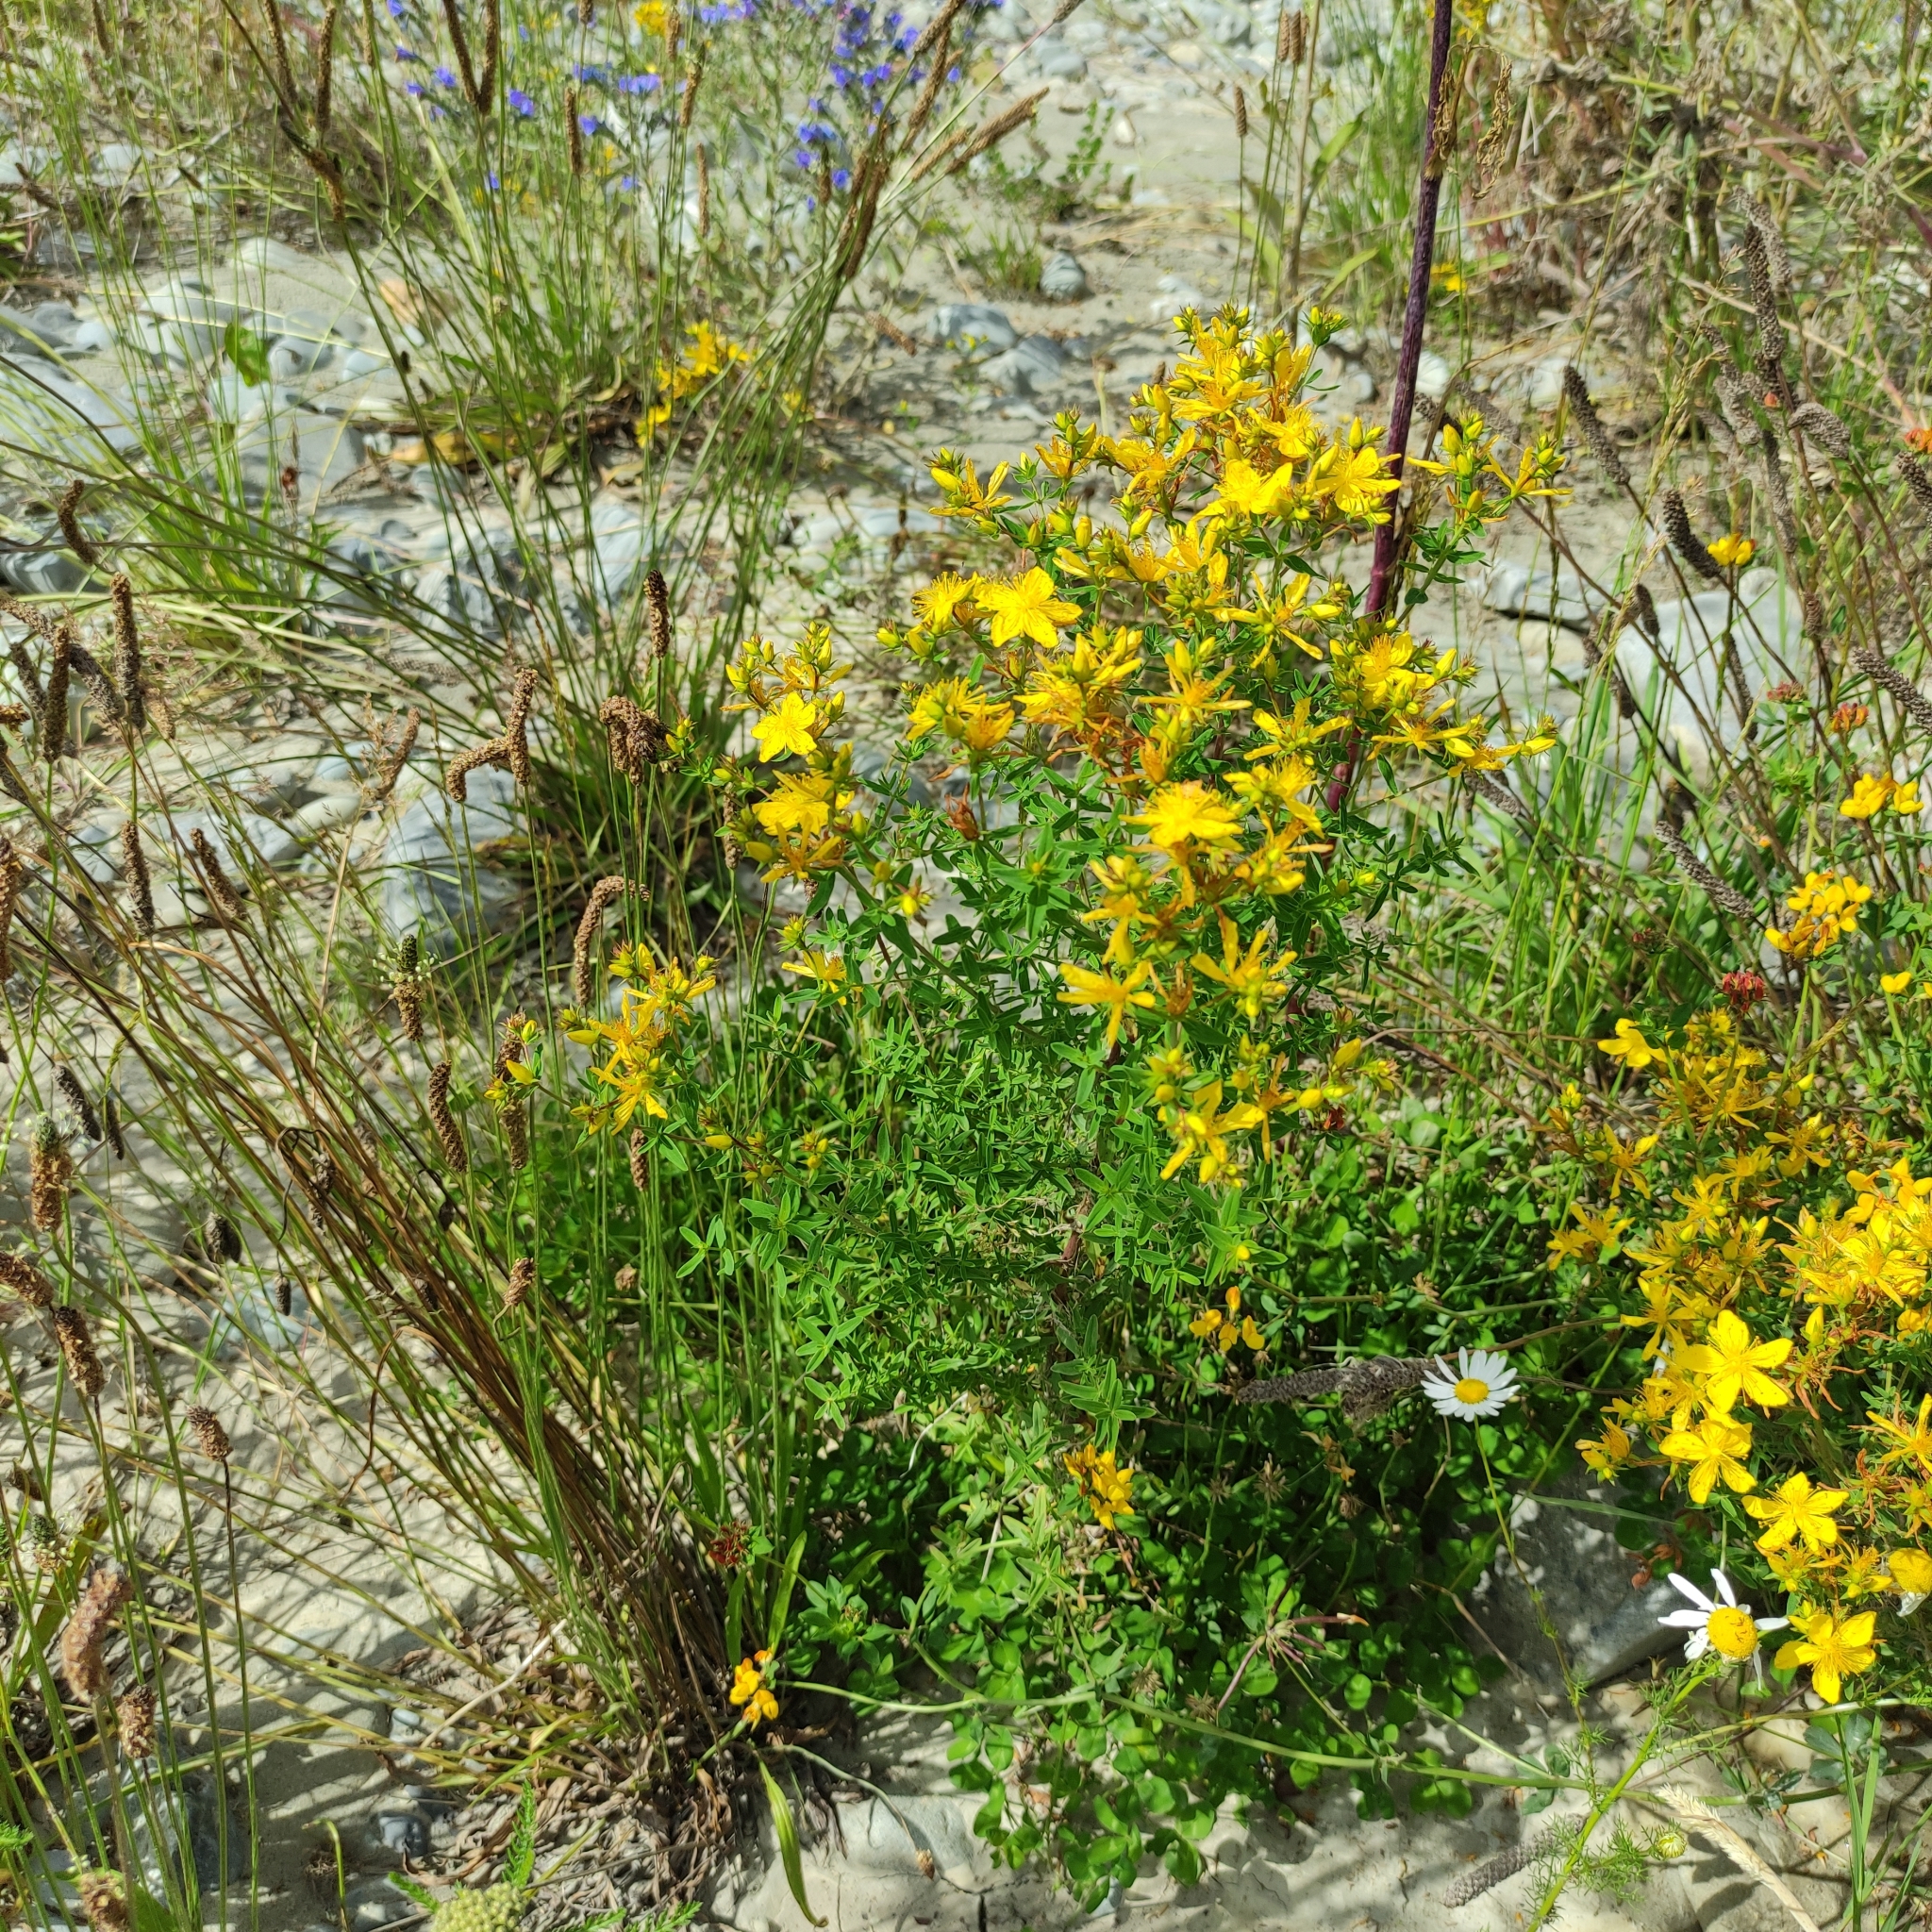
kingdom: Plantae
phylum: Tracheophyta
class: Magnoliopsida
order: Malpighiales
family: Hypericaceae
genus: Hypericum
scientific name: Hypericum perforatum
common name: Common st. johnswort
